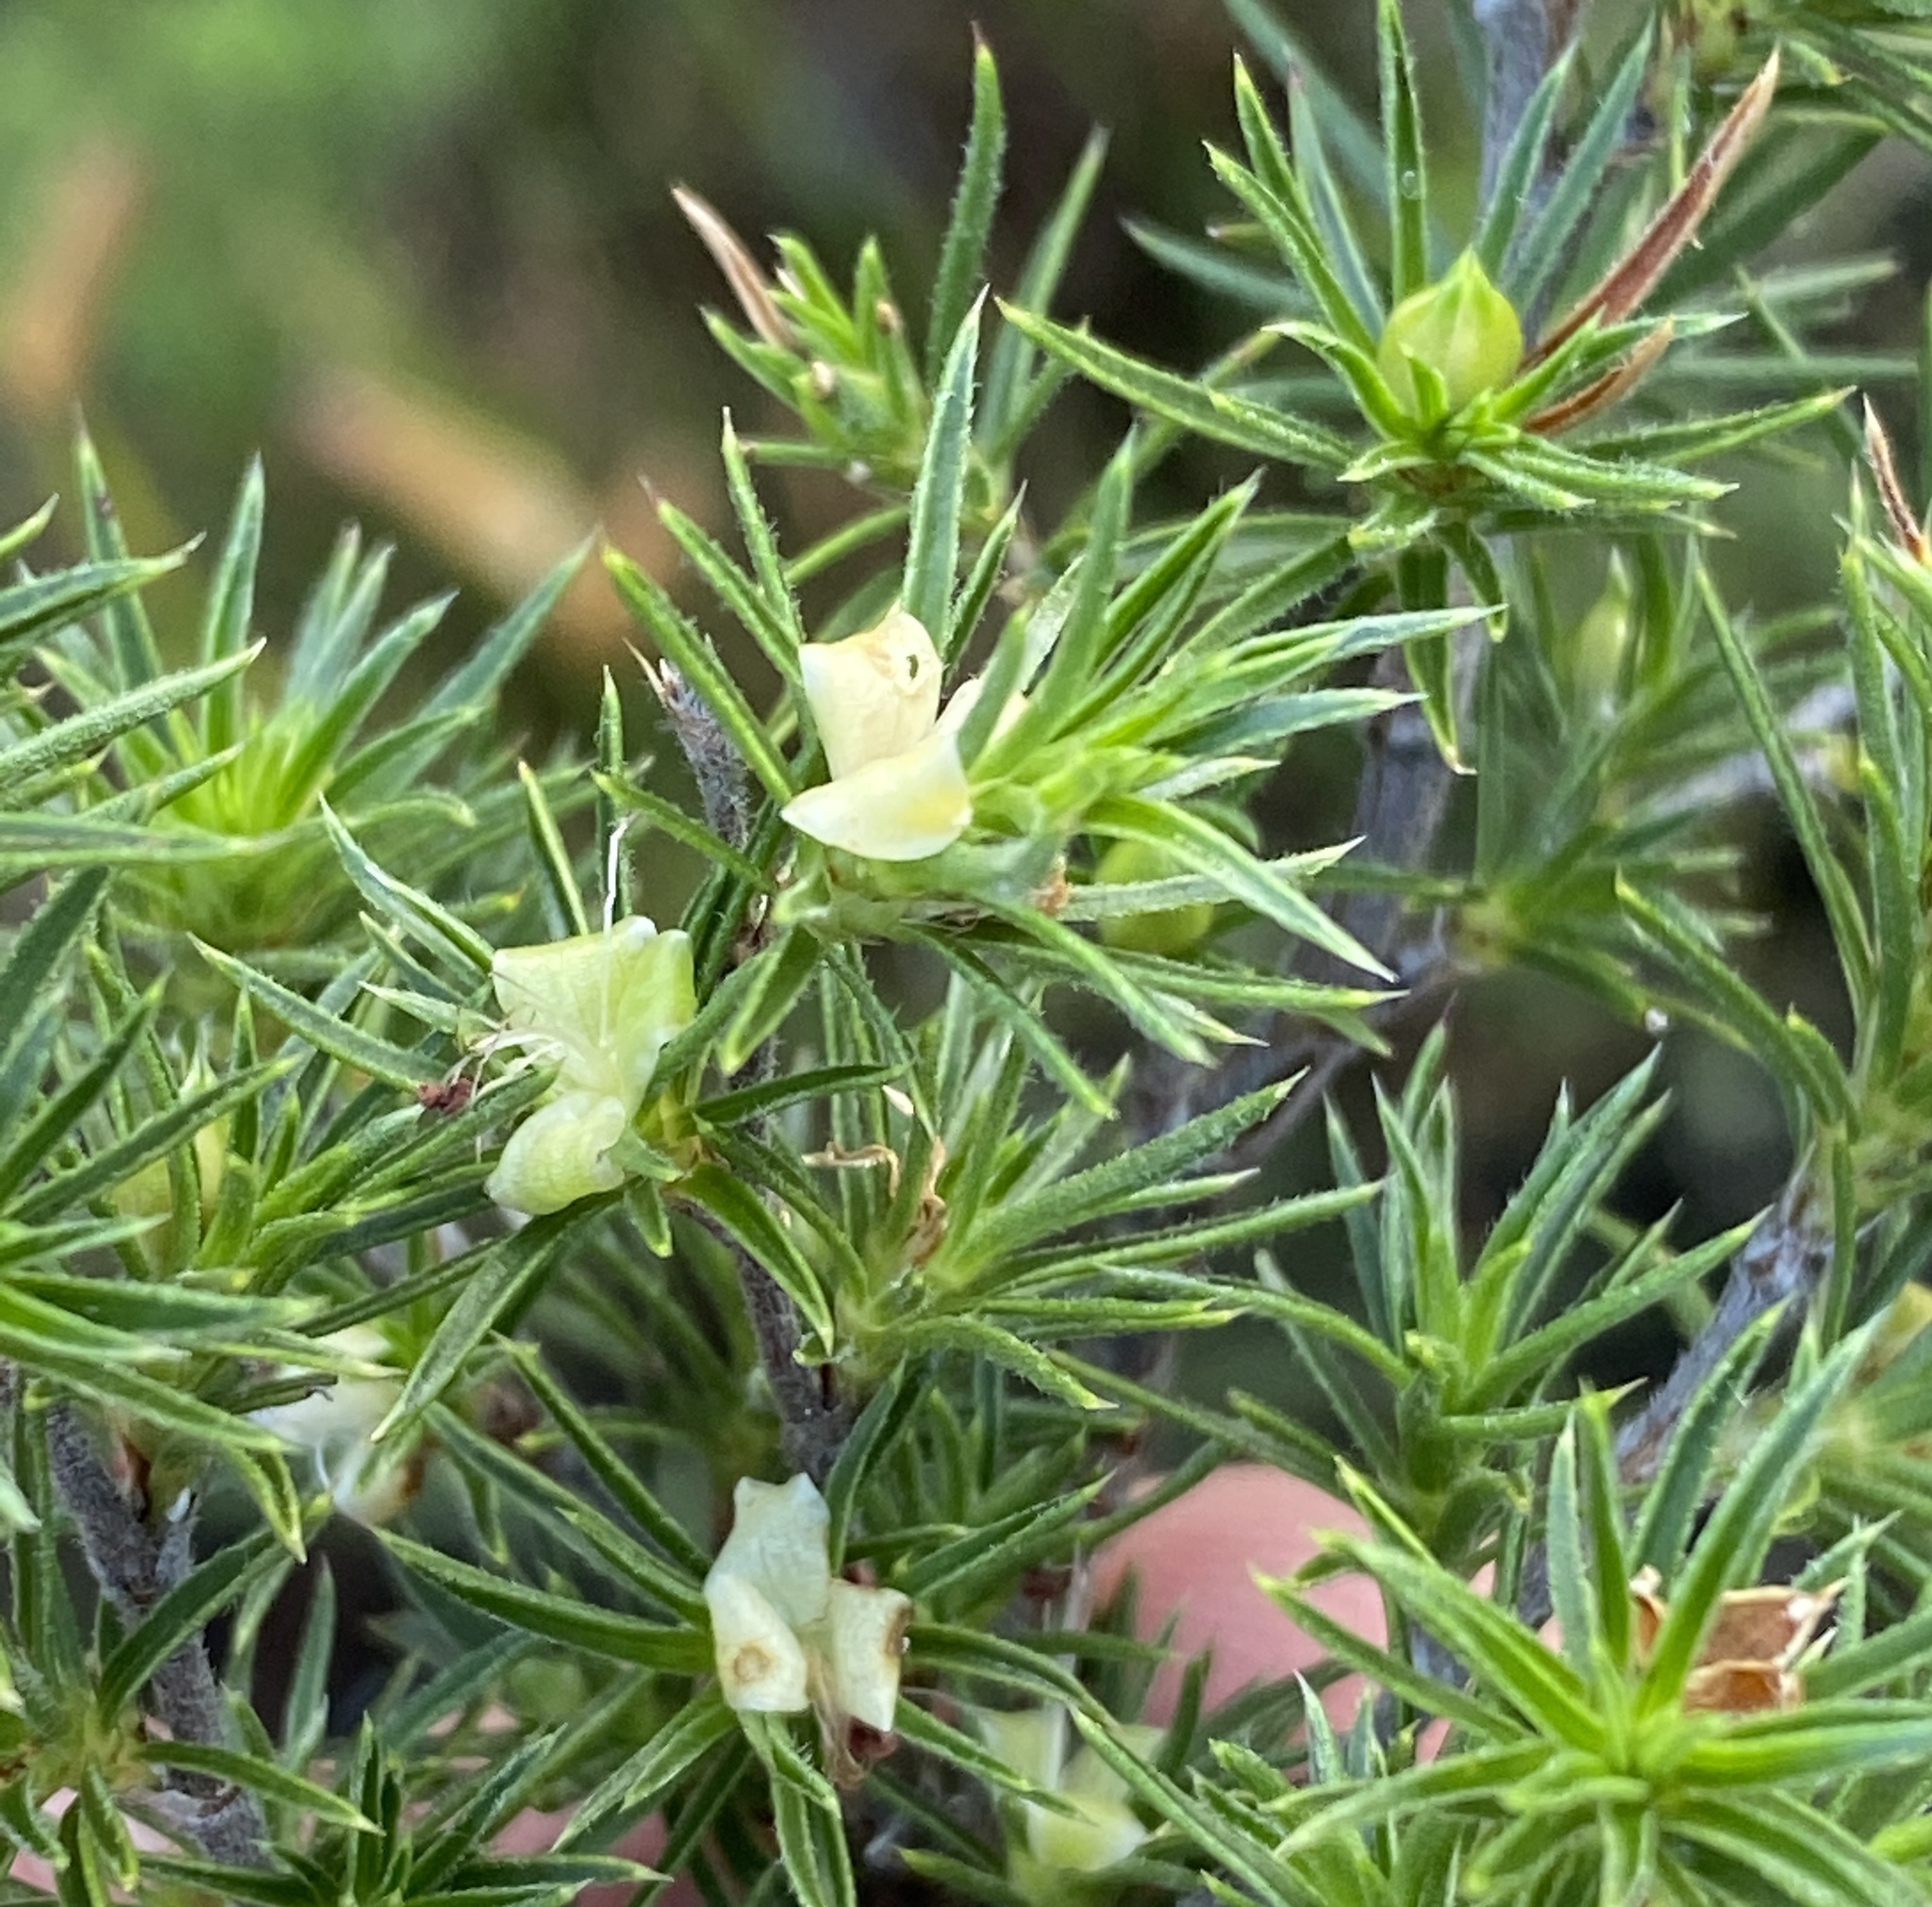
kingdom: Plantae
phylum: Tracheophyta
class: Magnoliopsida
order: Rosales
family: Rosaceae
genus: Cliffortia
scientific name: Cliffortia atrata
